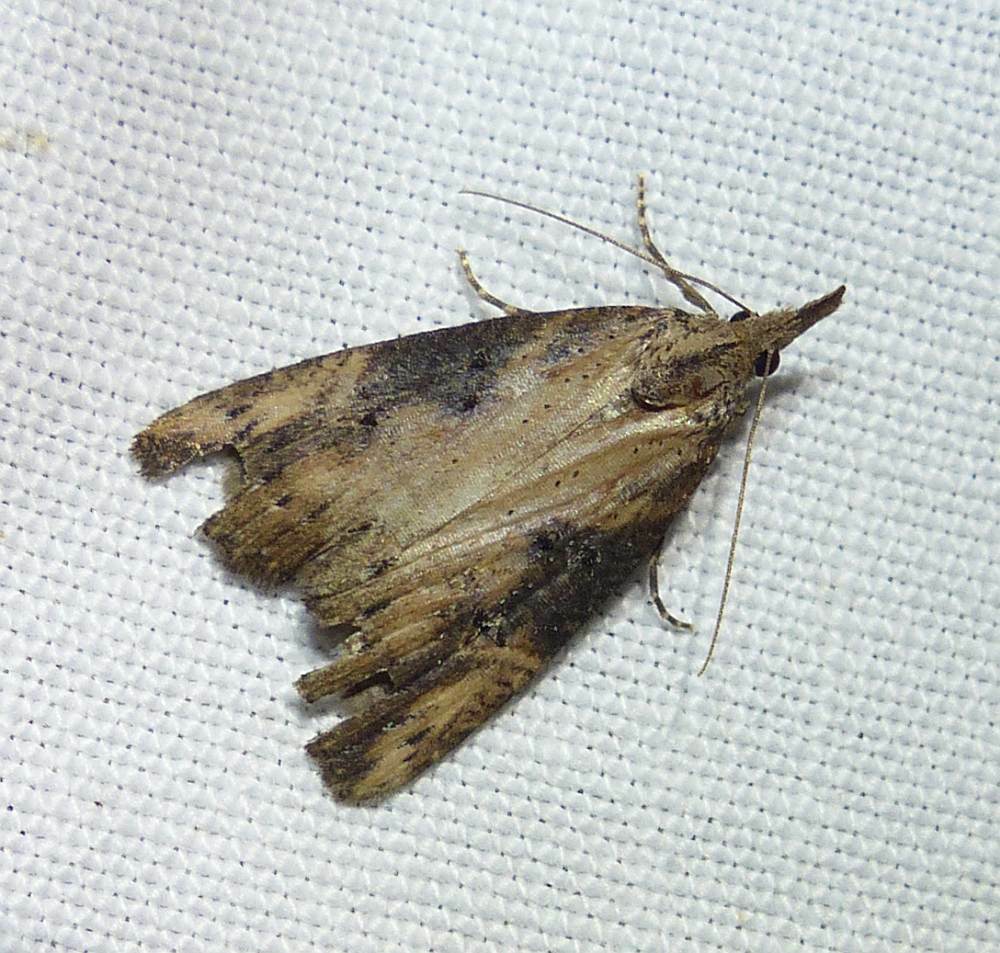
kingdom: Animalia
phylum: Arthropoda
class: Insecta
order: Lepidoptera
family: Erebidae
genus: Hypena
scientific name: Hypena humuli
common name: Hop vine snout
